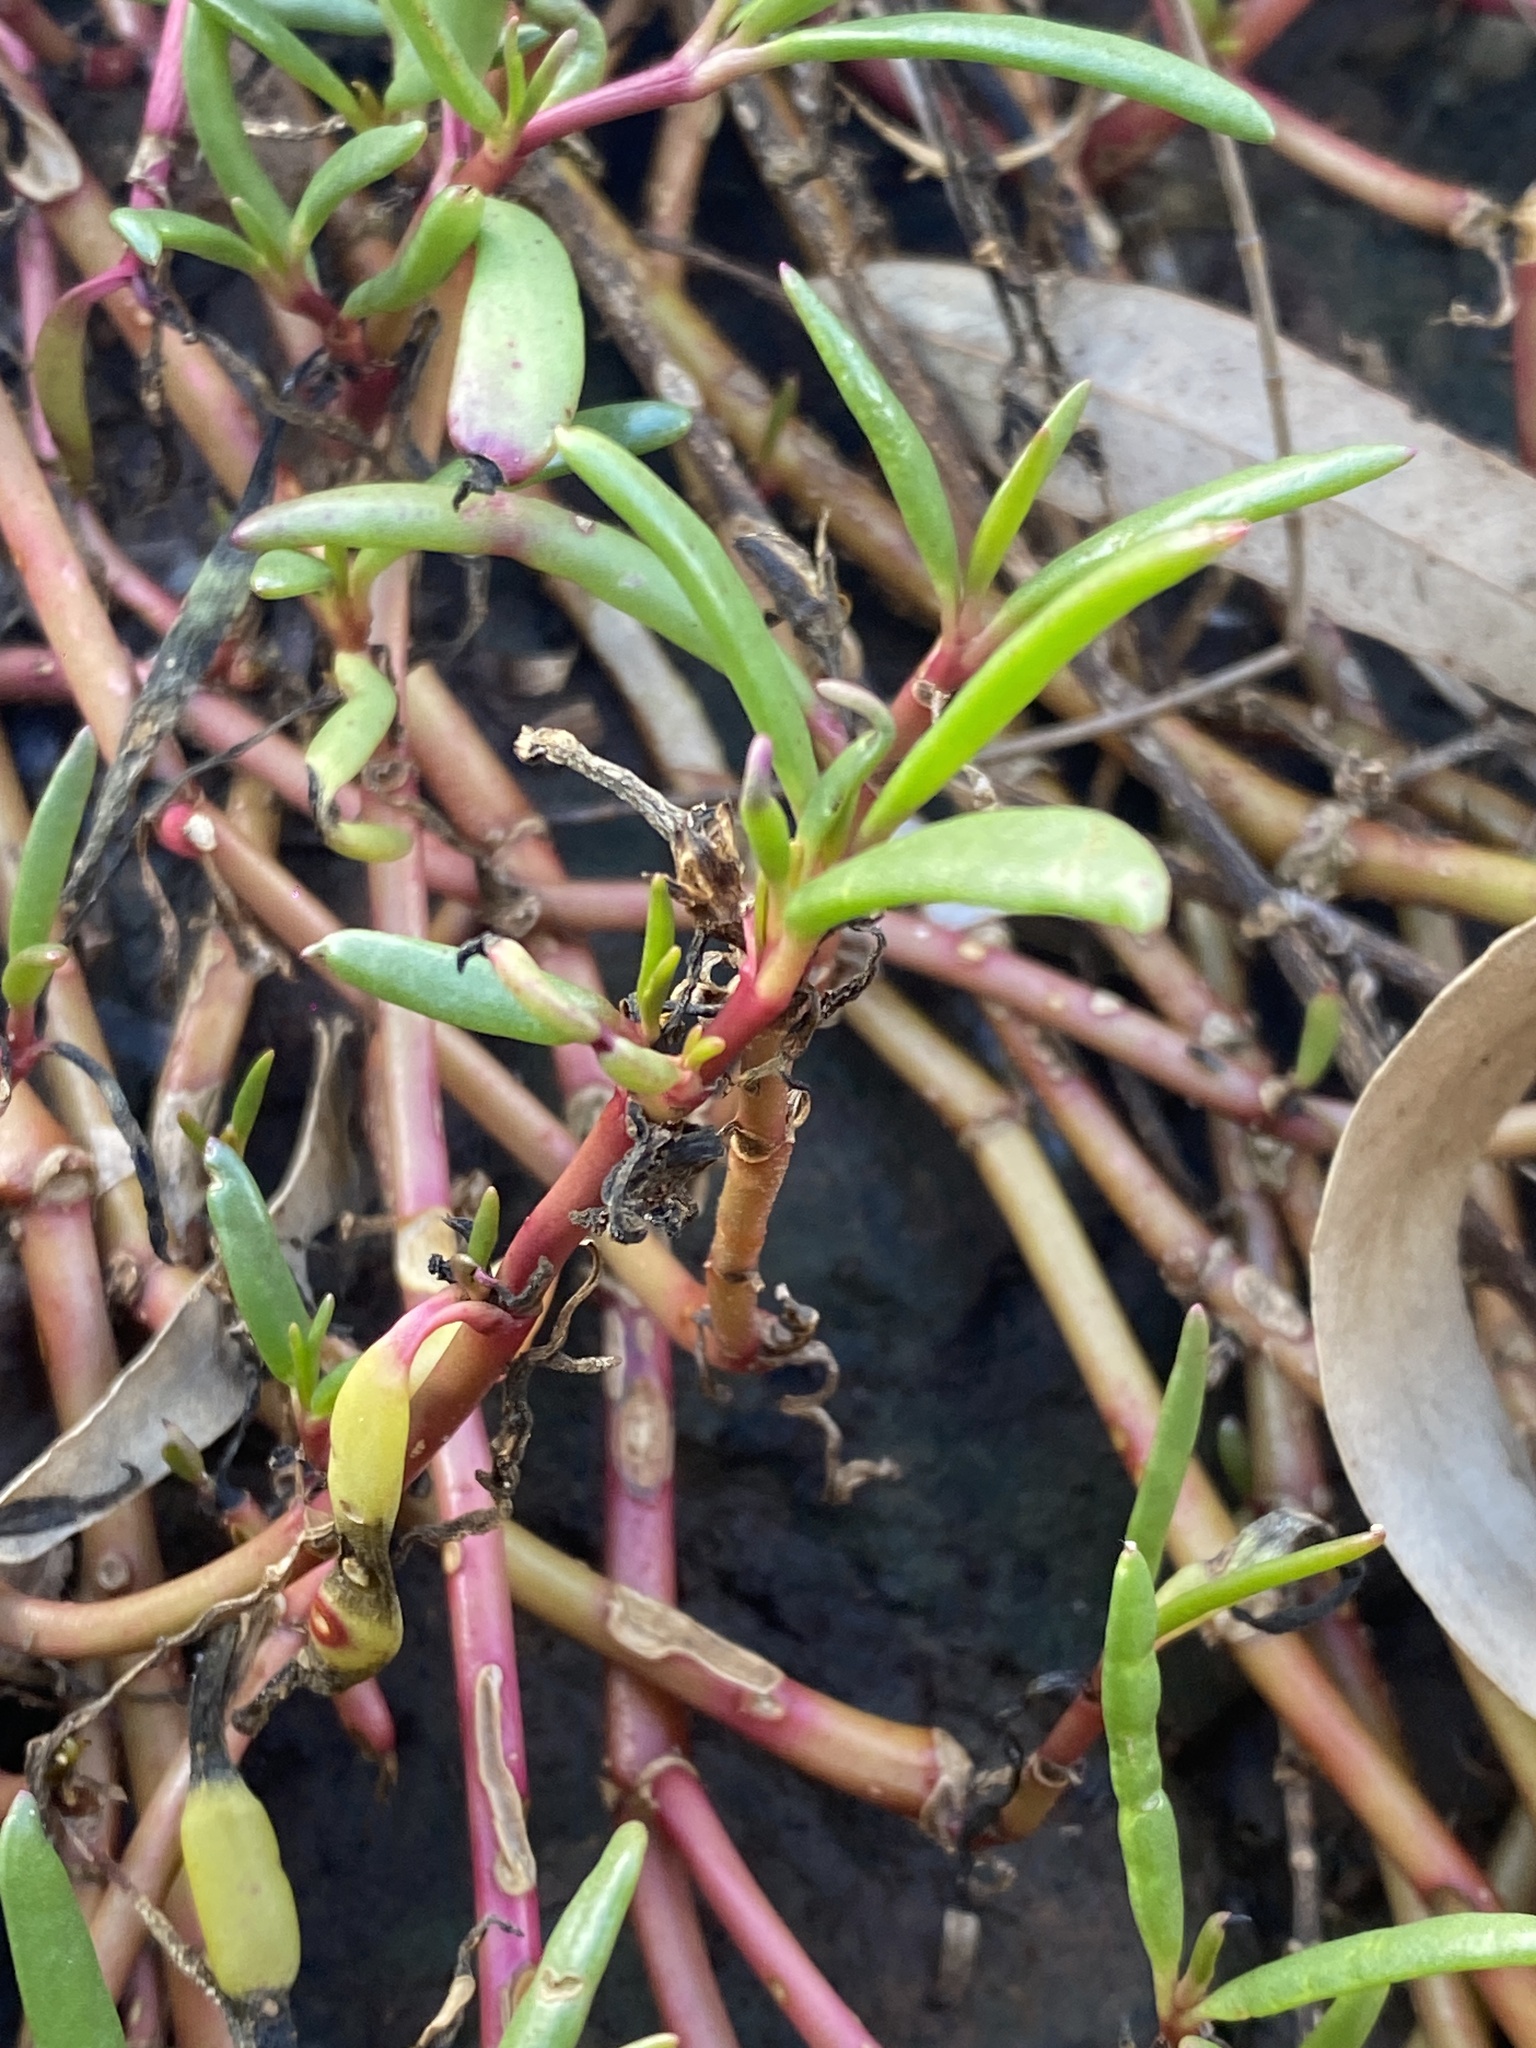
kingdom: Plantae
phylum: Tracheophyta
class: Magnoliopsida
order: Caryophyllales
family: Aizoaceae
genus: Sesuvium
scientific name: Sesuvium portulacastrum
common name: Sea-purslane
